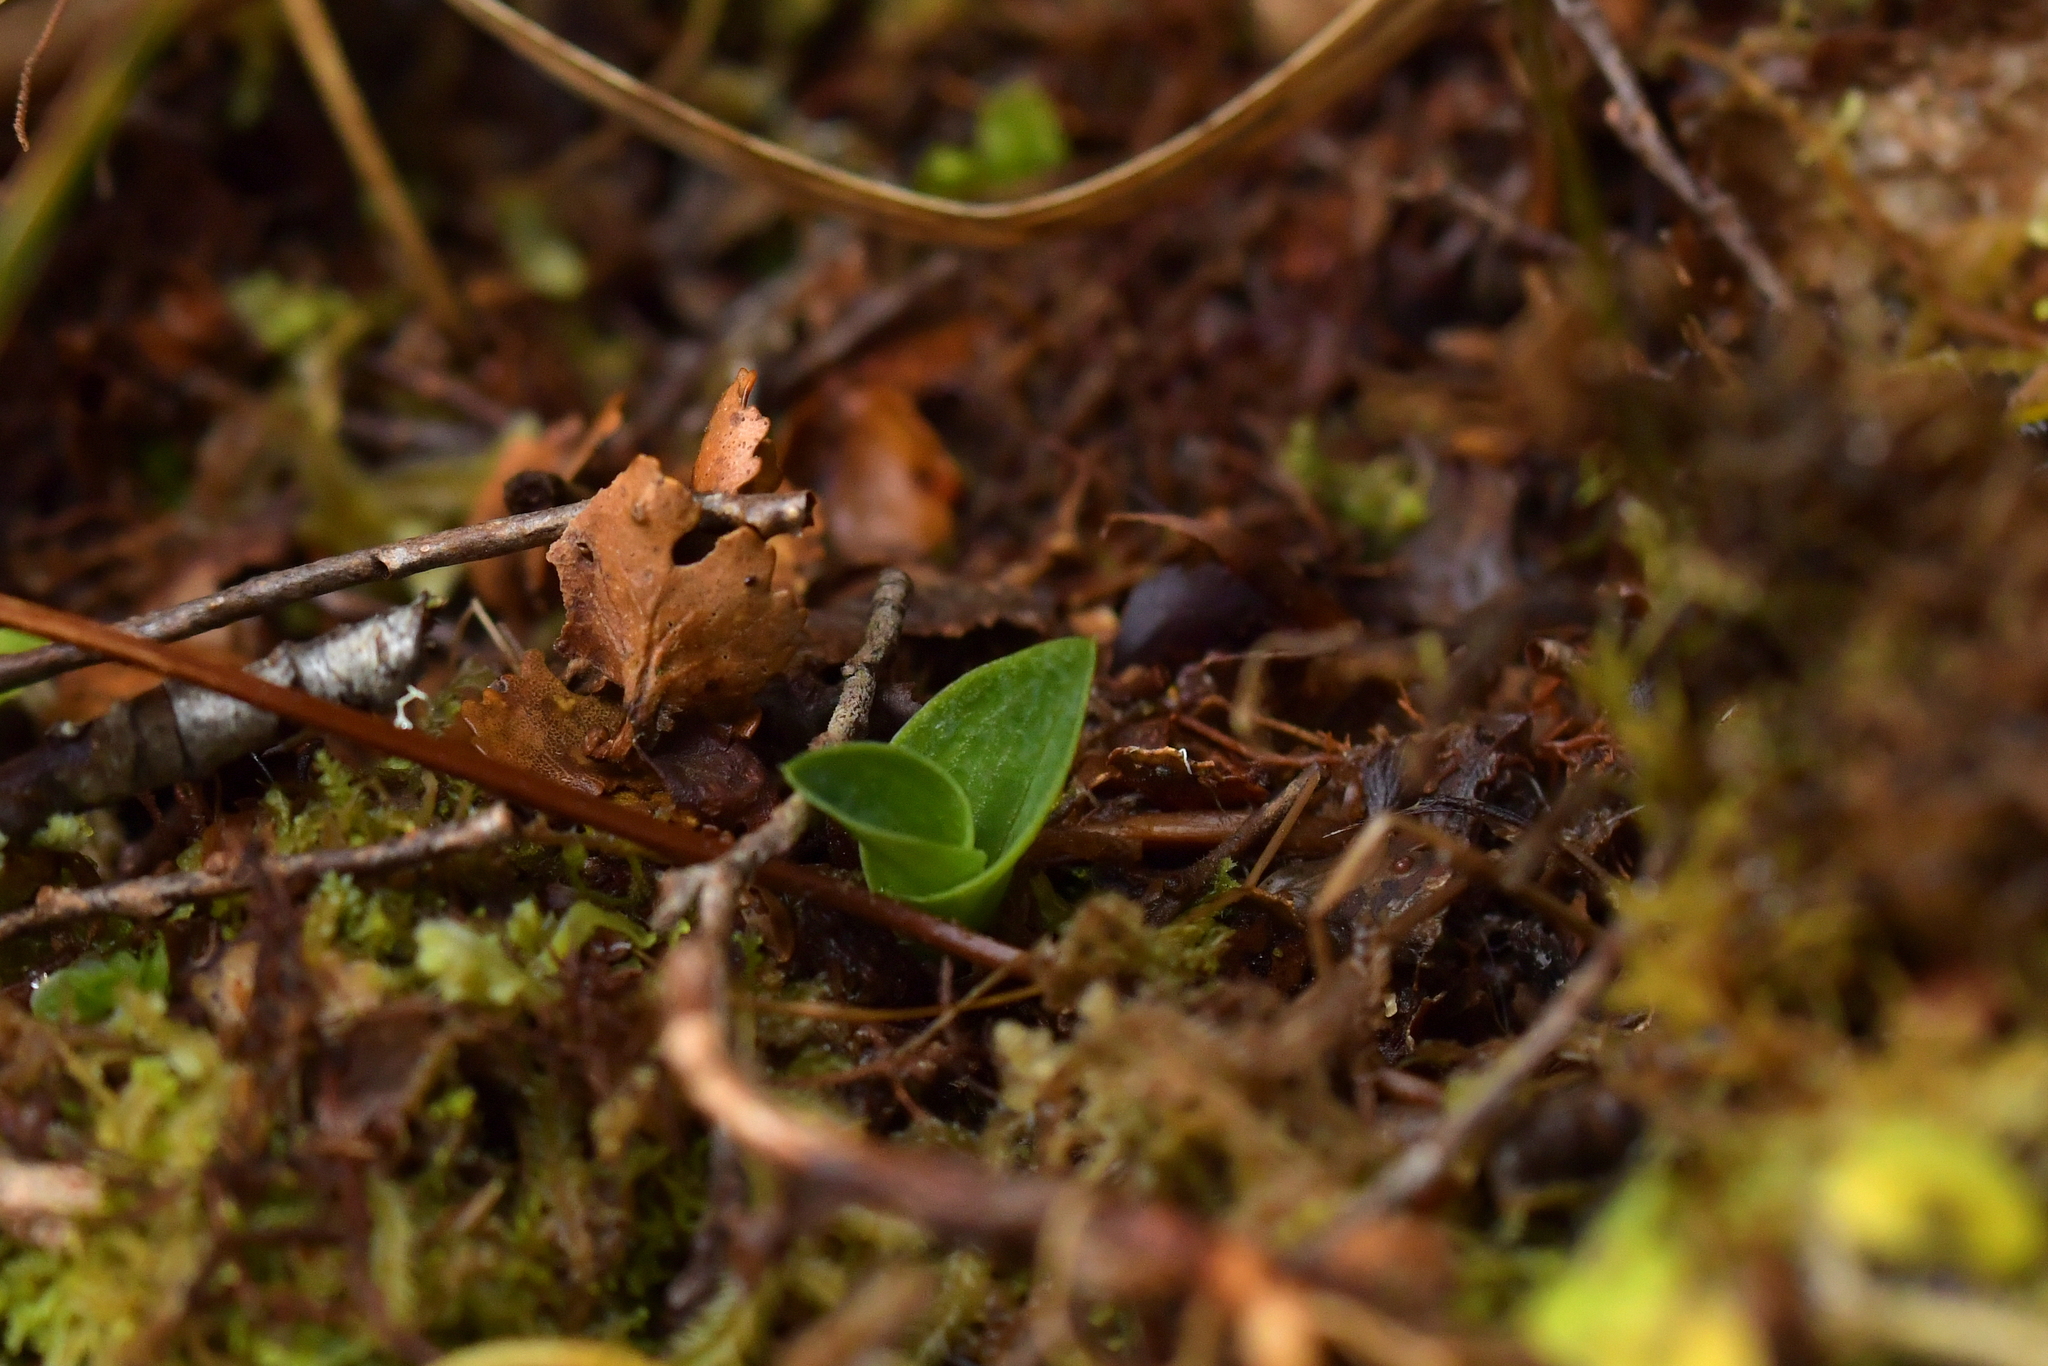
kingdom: Plantae
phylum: Tracheophyta
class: Liliopsida
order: Asparagales
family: Orchidaceae
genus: Chiloglottis
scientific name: Chiloglottis cornuta
